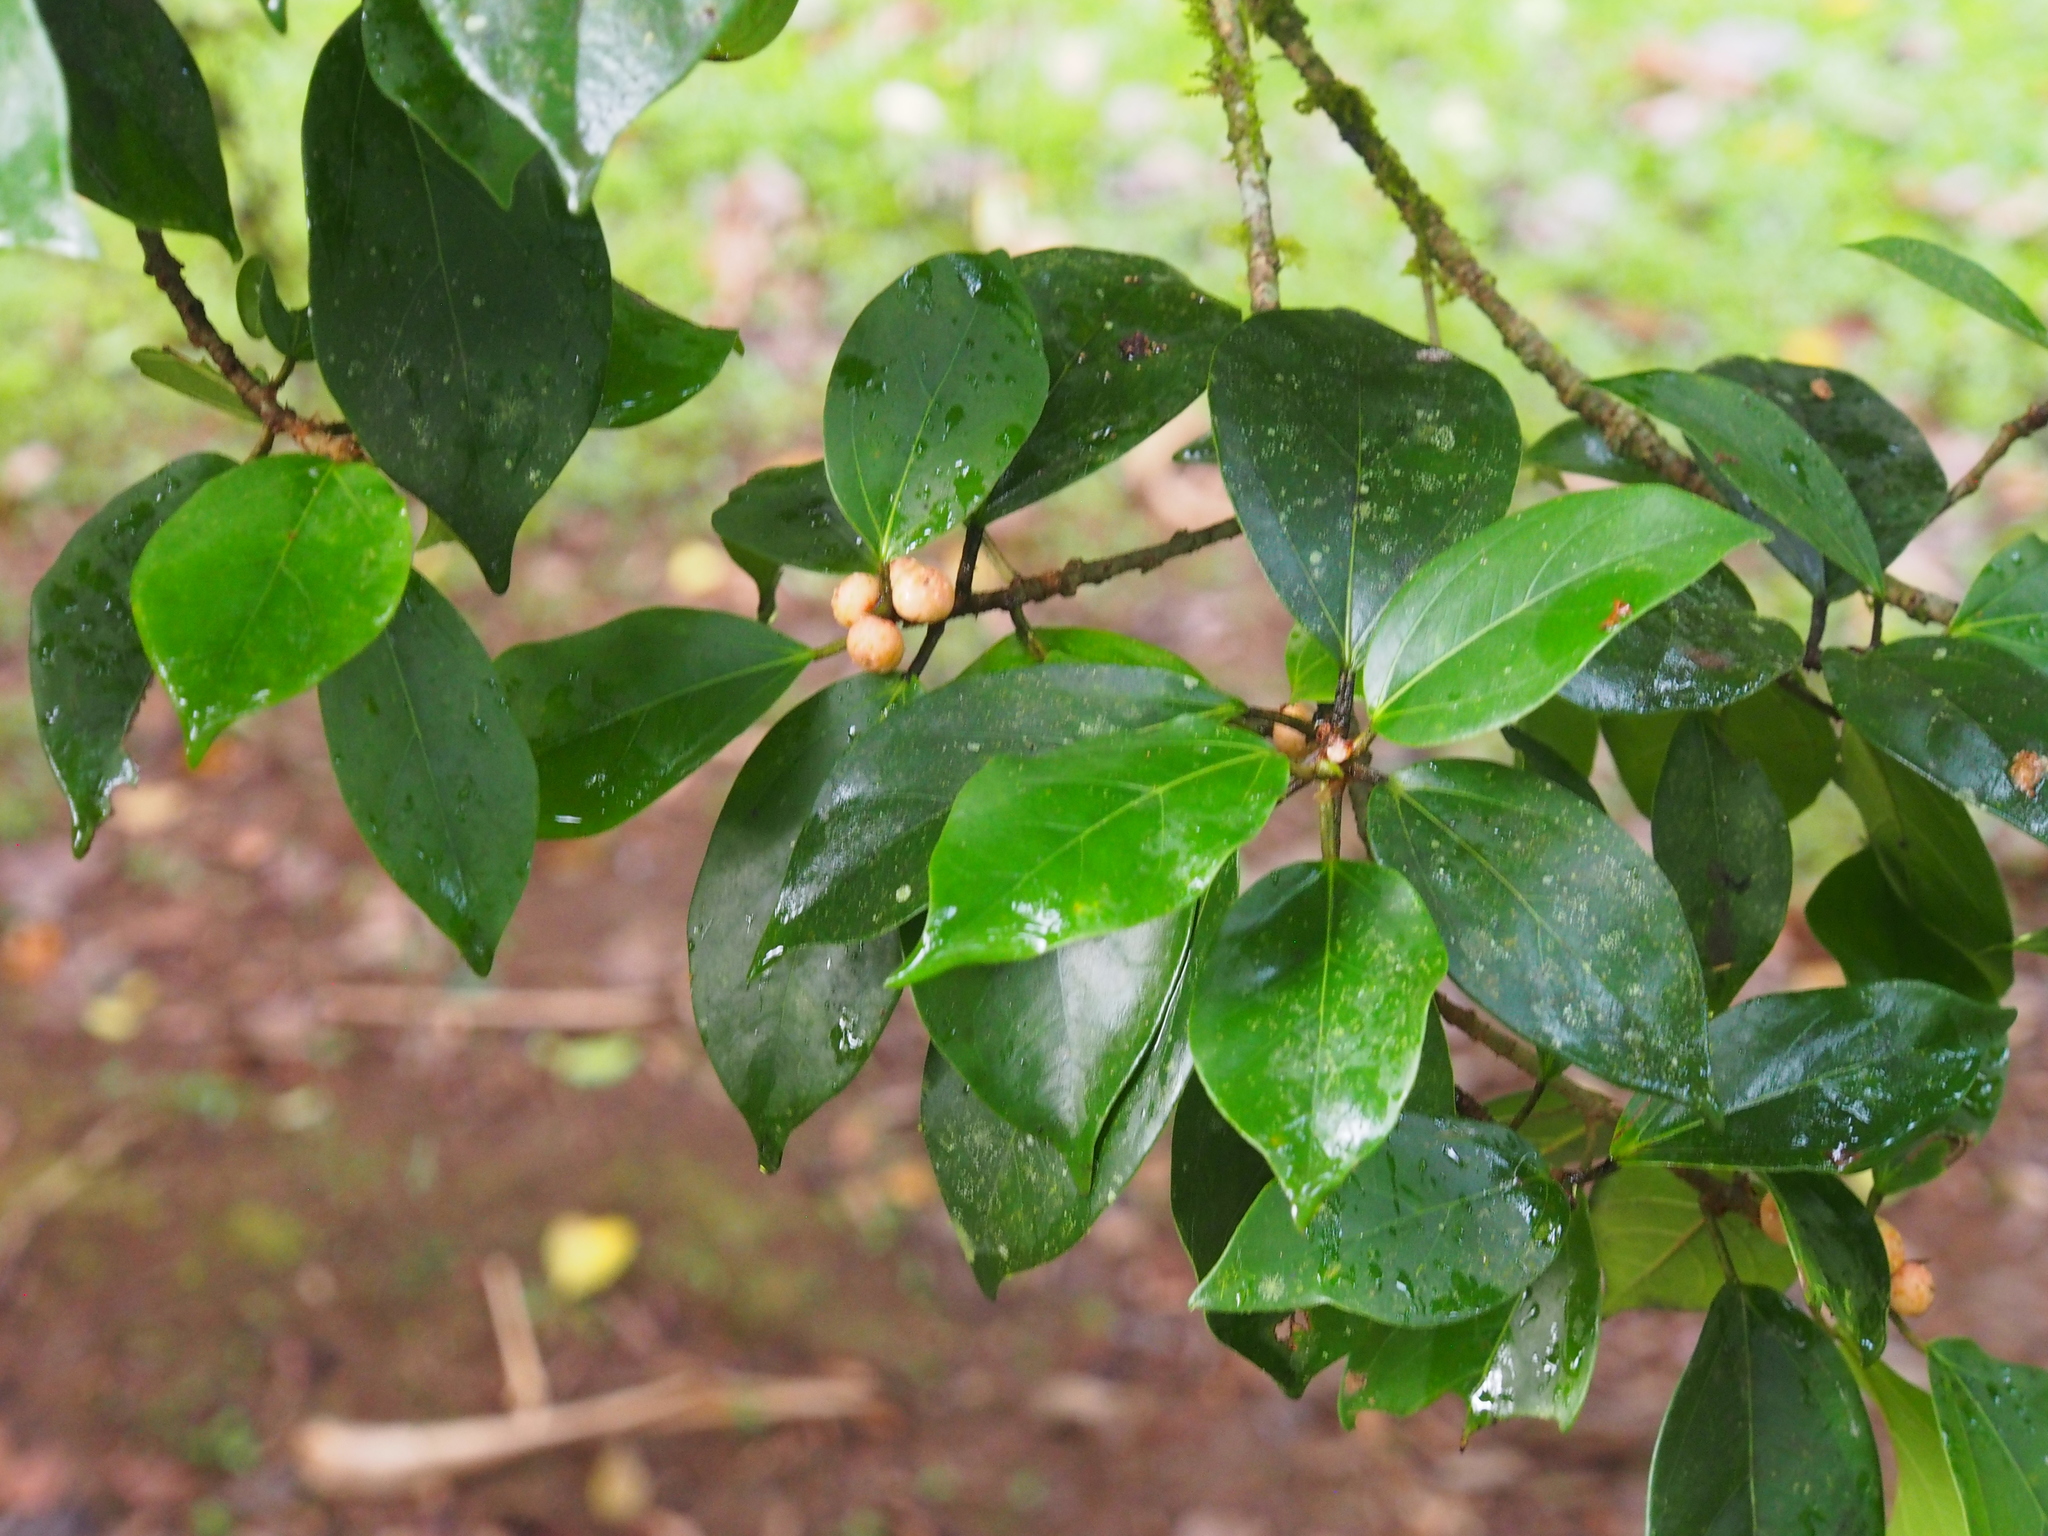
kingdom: Plantae
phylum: Tracheophyta
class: Magnoliopsida
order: Rosales
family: Moraceae
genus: Ficus
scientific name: Ficus colubrinae
